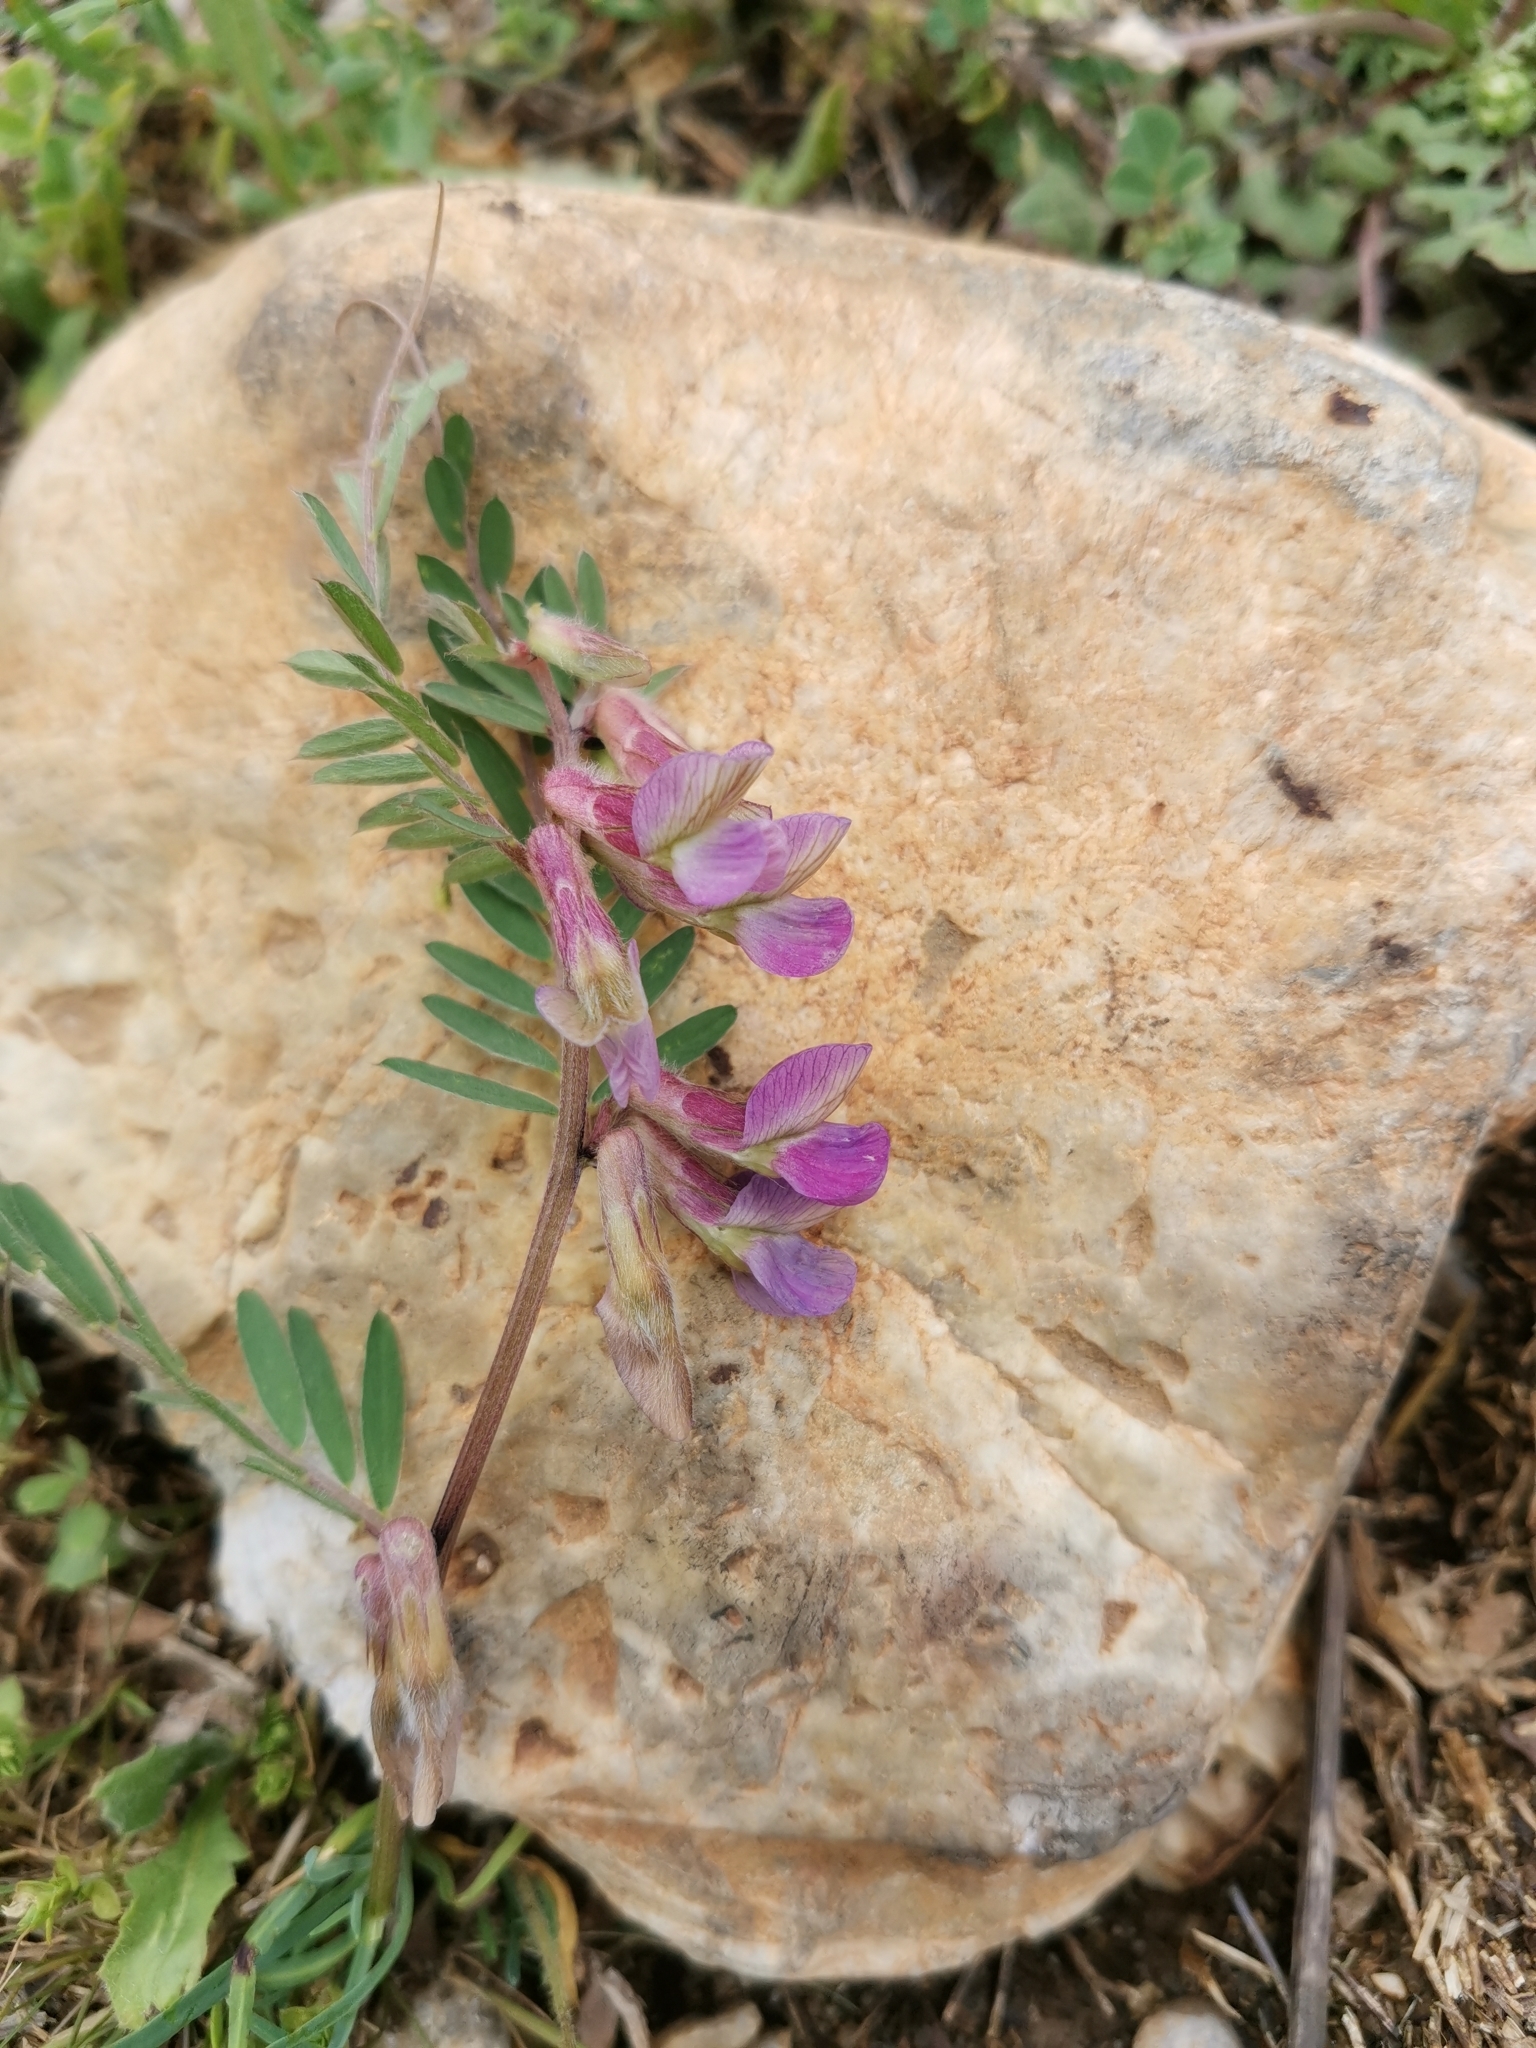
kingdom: Plantae
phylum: Tracheophyta
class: Magnoliopsida
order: Fabales
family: Fabaceae
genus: Vicia
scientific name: Vicia pannonica
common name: Hungarian vetch
